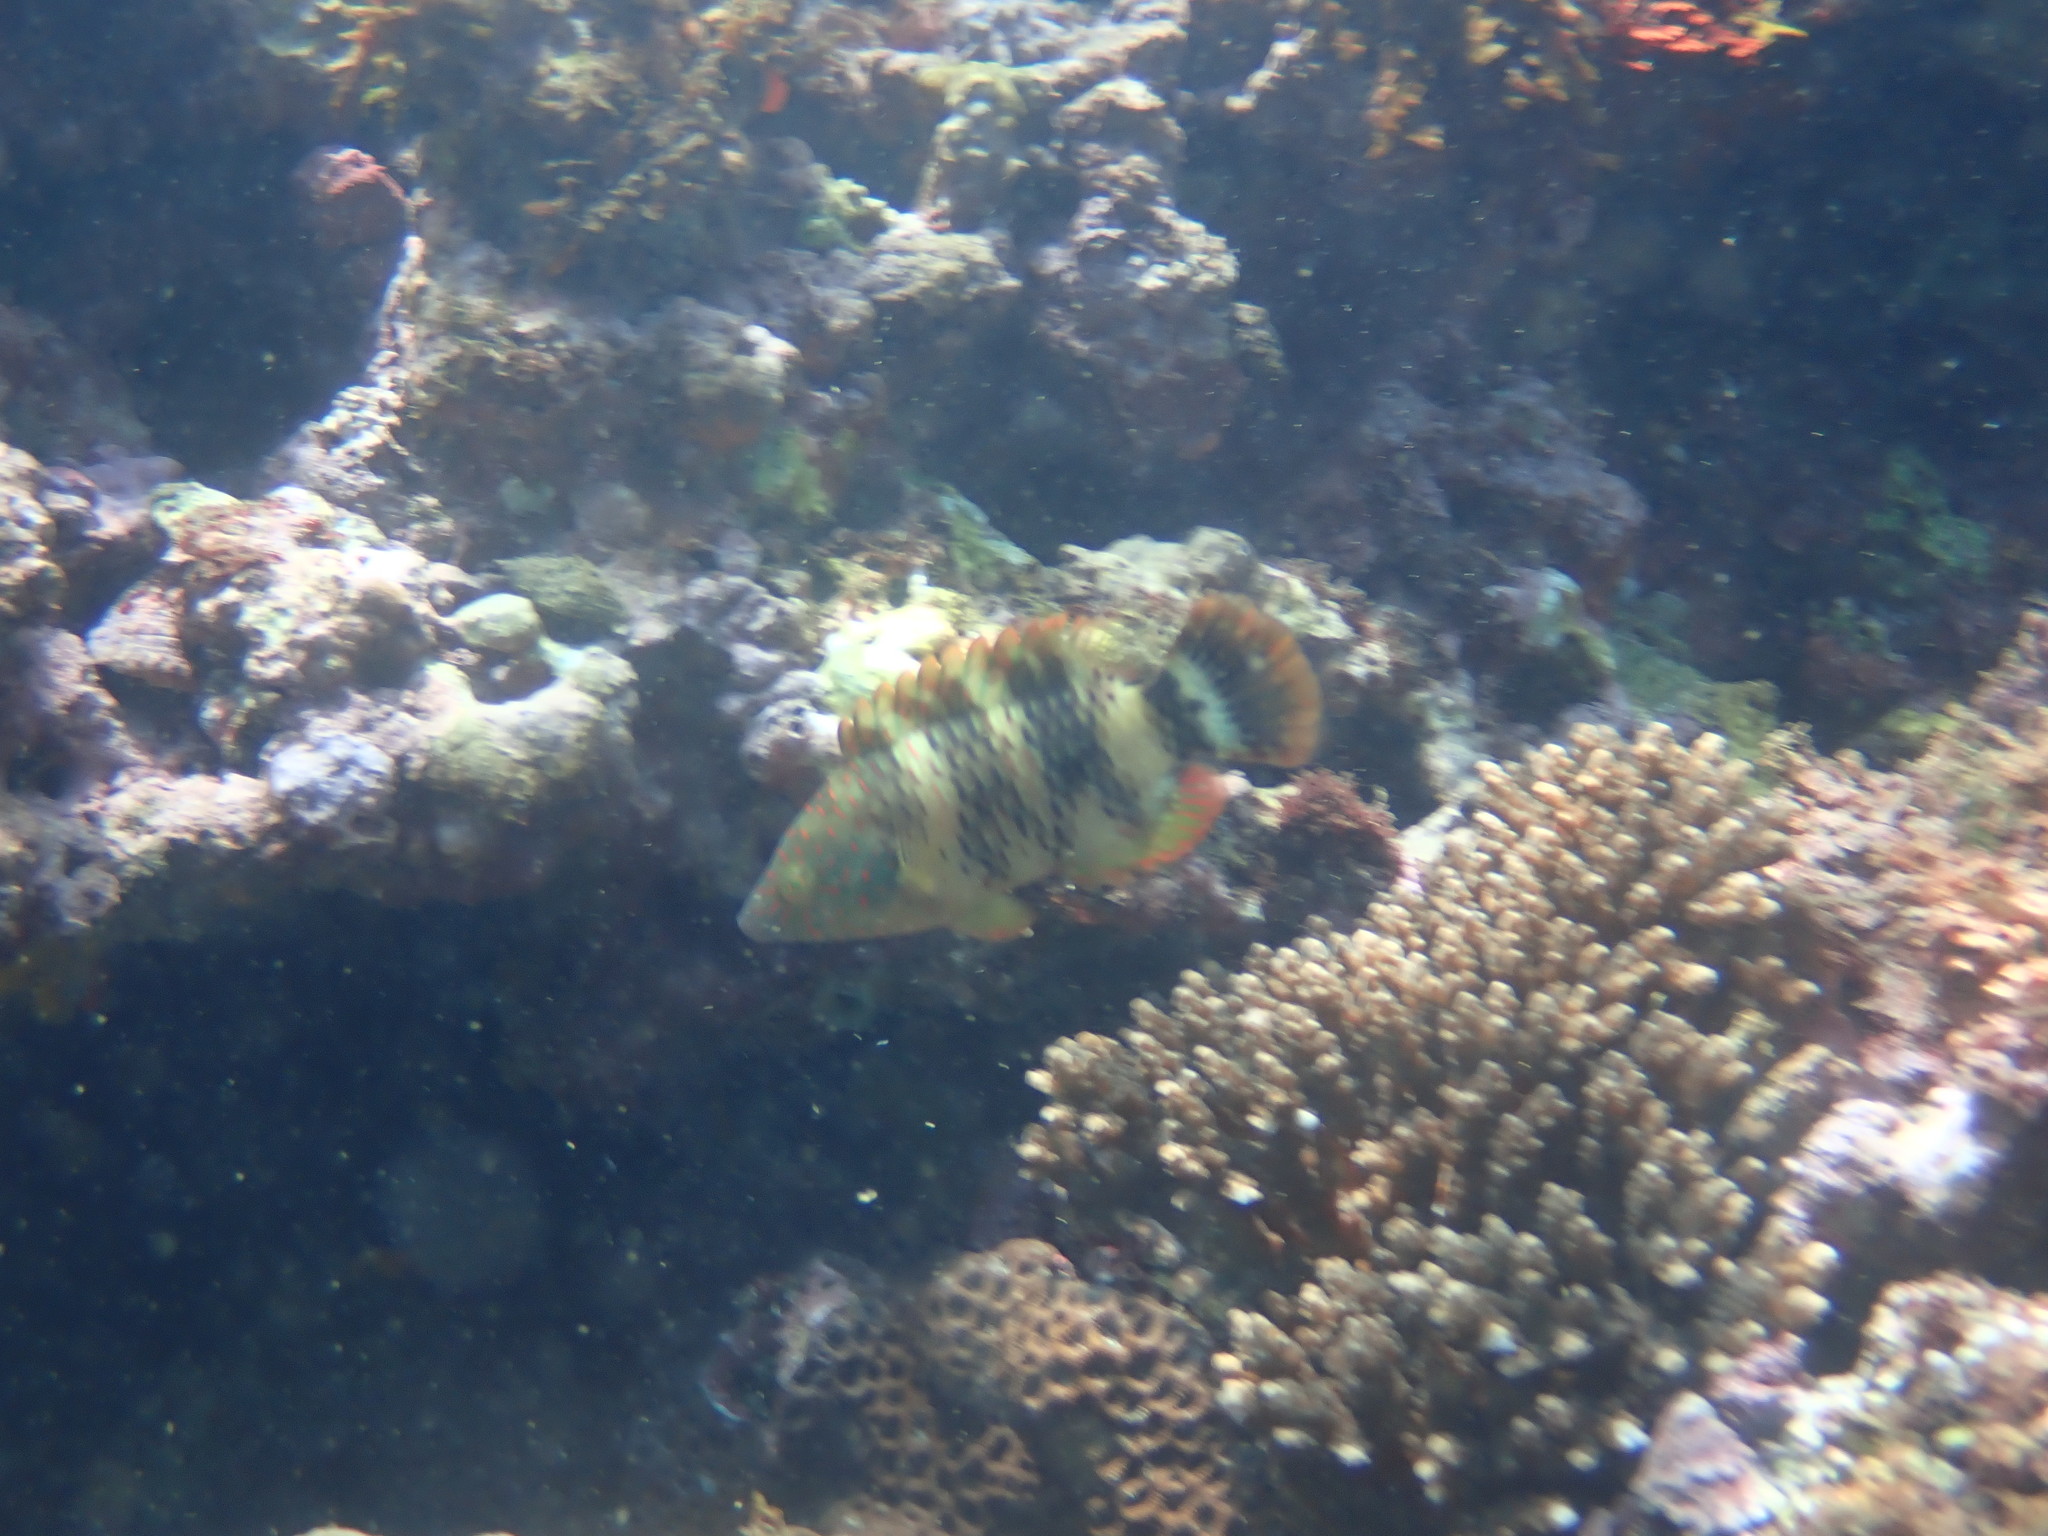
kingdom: Animalia
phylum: Chordata
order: Perciformes
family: Labridae
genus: Cheilinus
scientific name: Cheilinus trilobatus
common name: Tripletail maori wrasse
